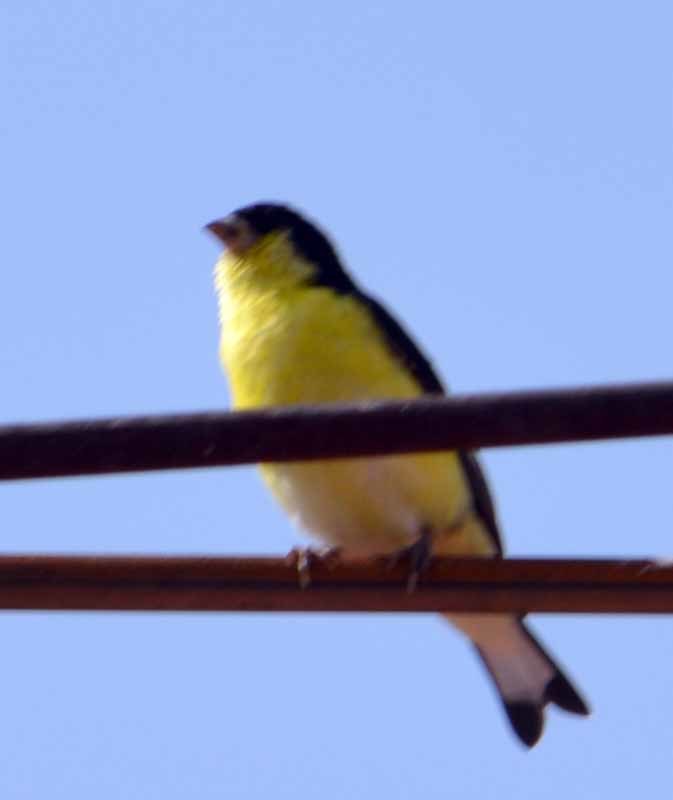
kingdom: Animalia
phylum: Chordata
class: Aves
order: Passeriformes
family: Fringillidae
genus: Spinus
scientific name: Spinus psaltria
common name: Lesser goldfinch
